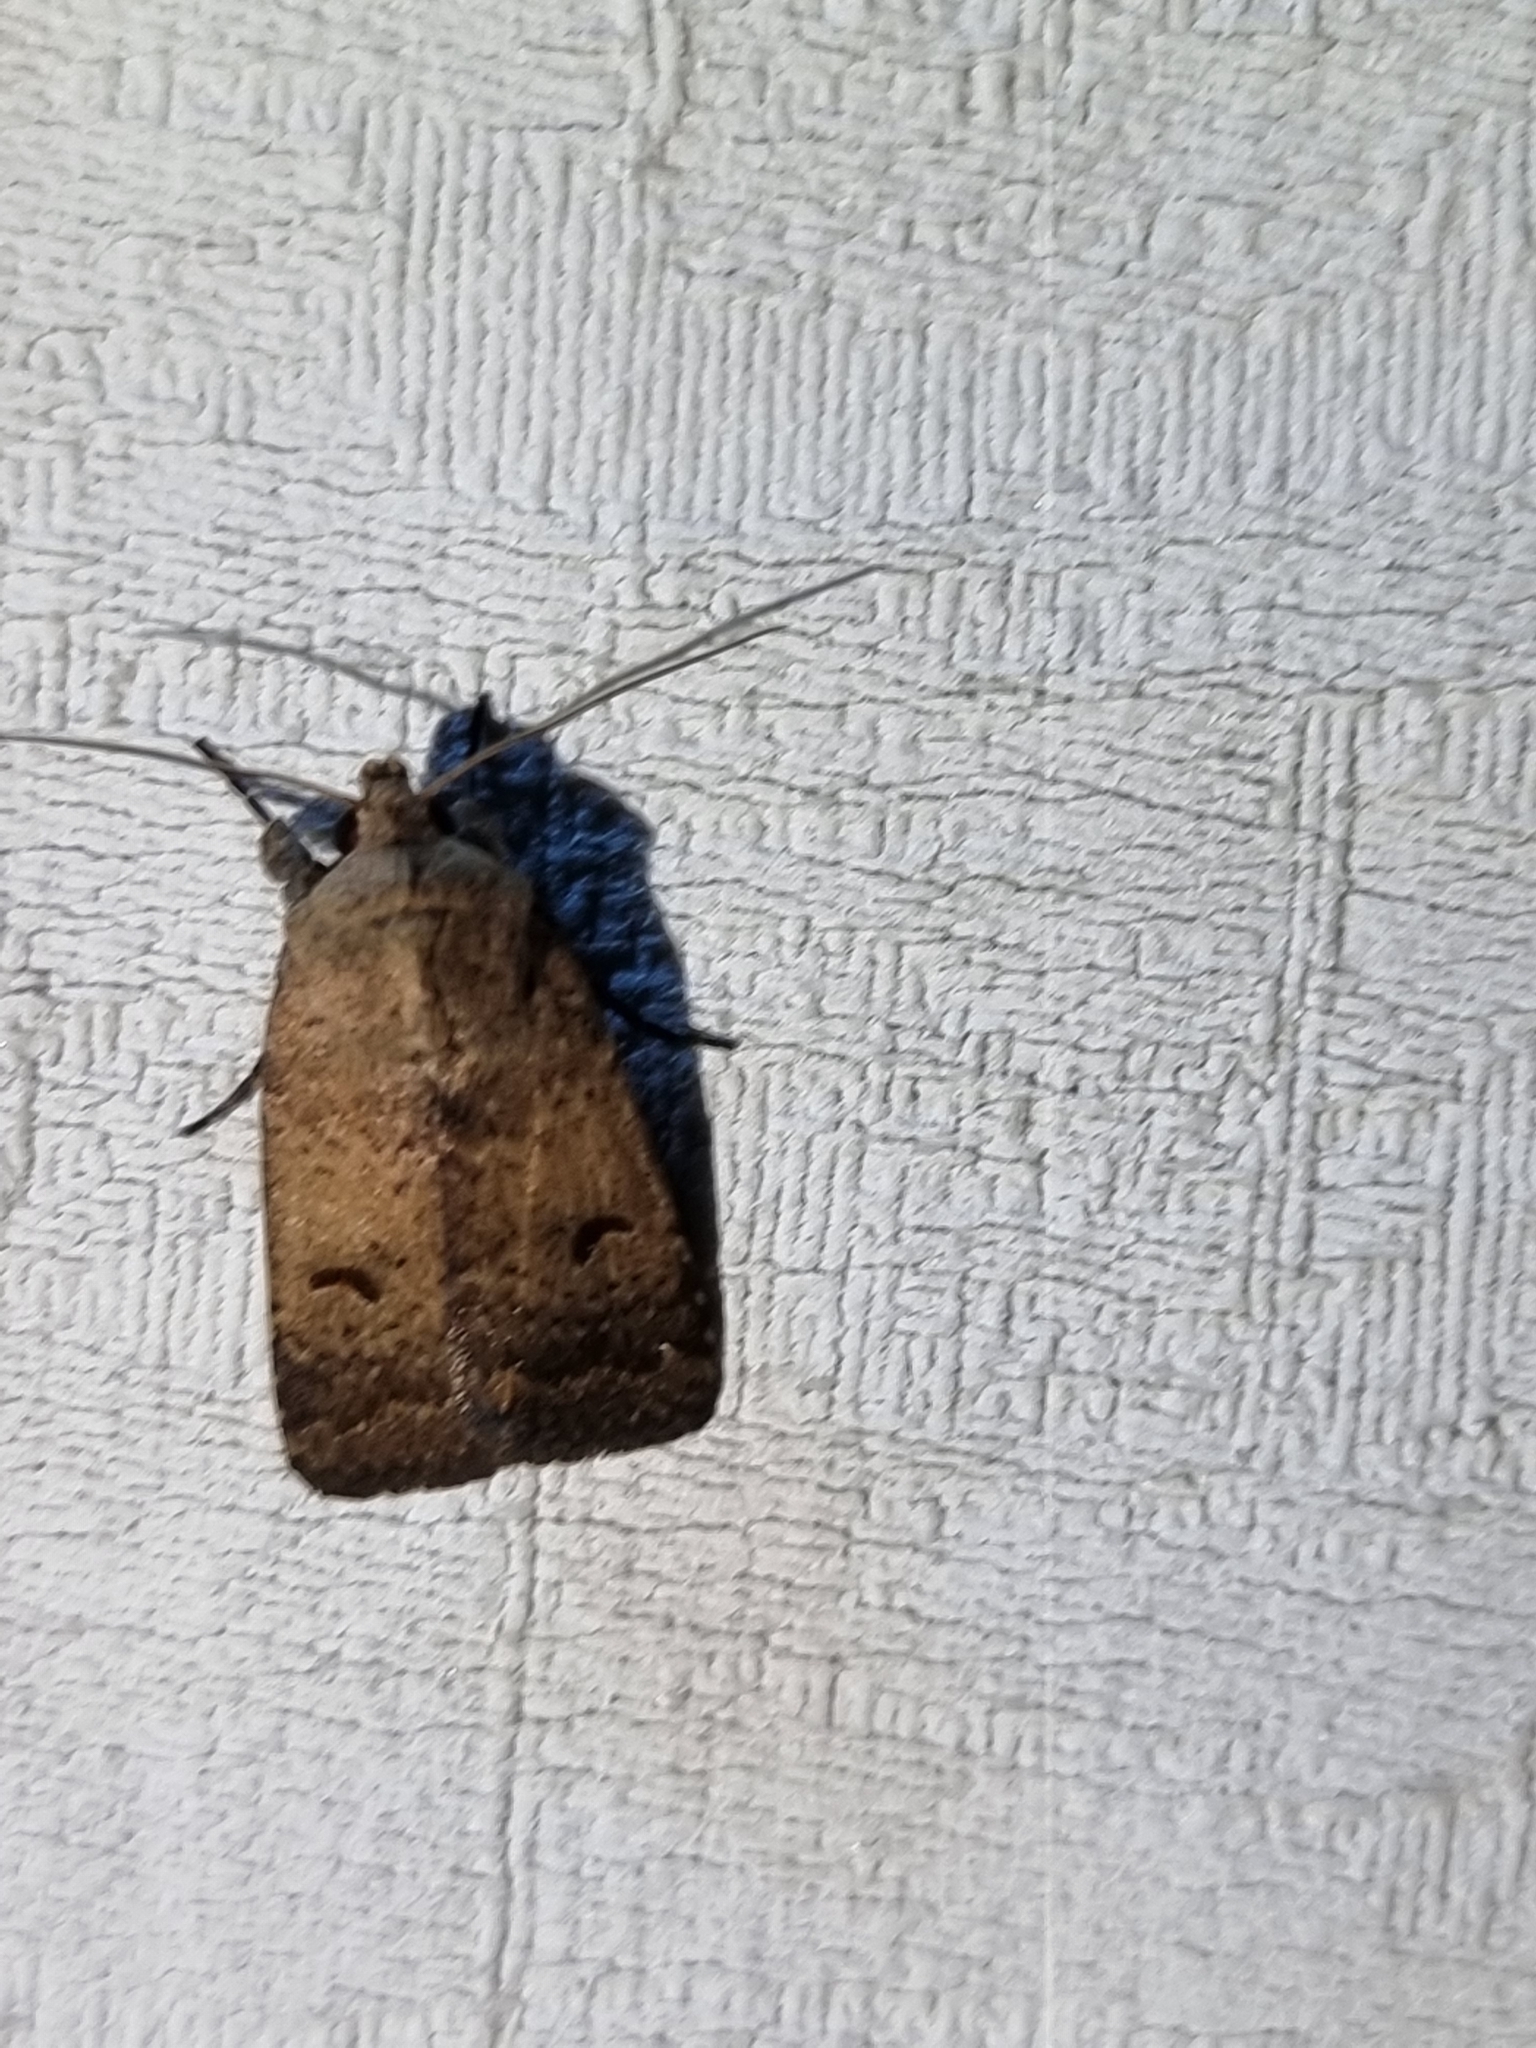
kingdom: Animalia
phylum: Arthropoda
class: Insecta
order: Lepidoptera
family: Noctuidae
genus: Proteuxoa
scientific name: Proteuxoa hypochalchis
